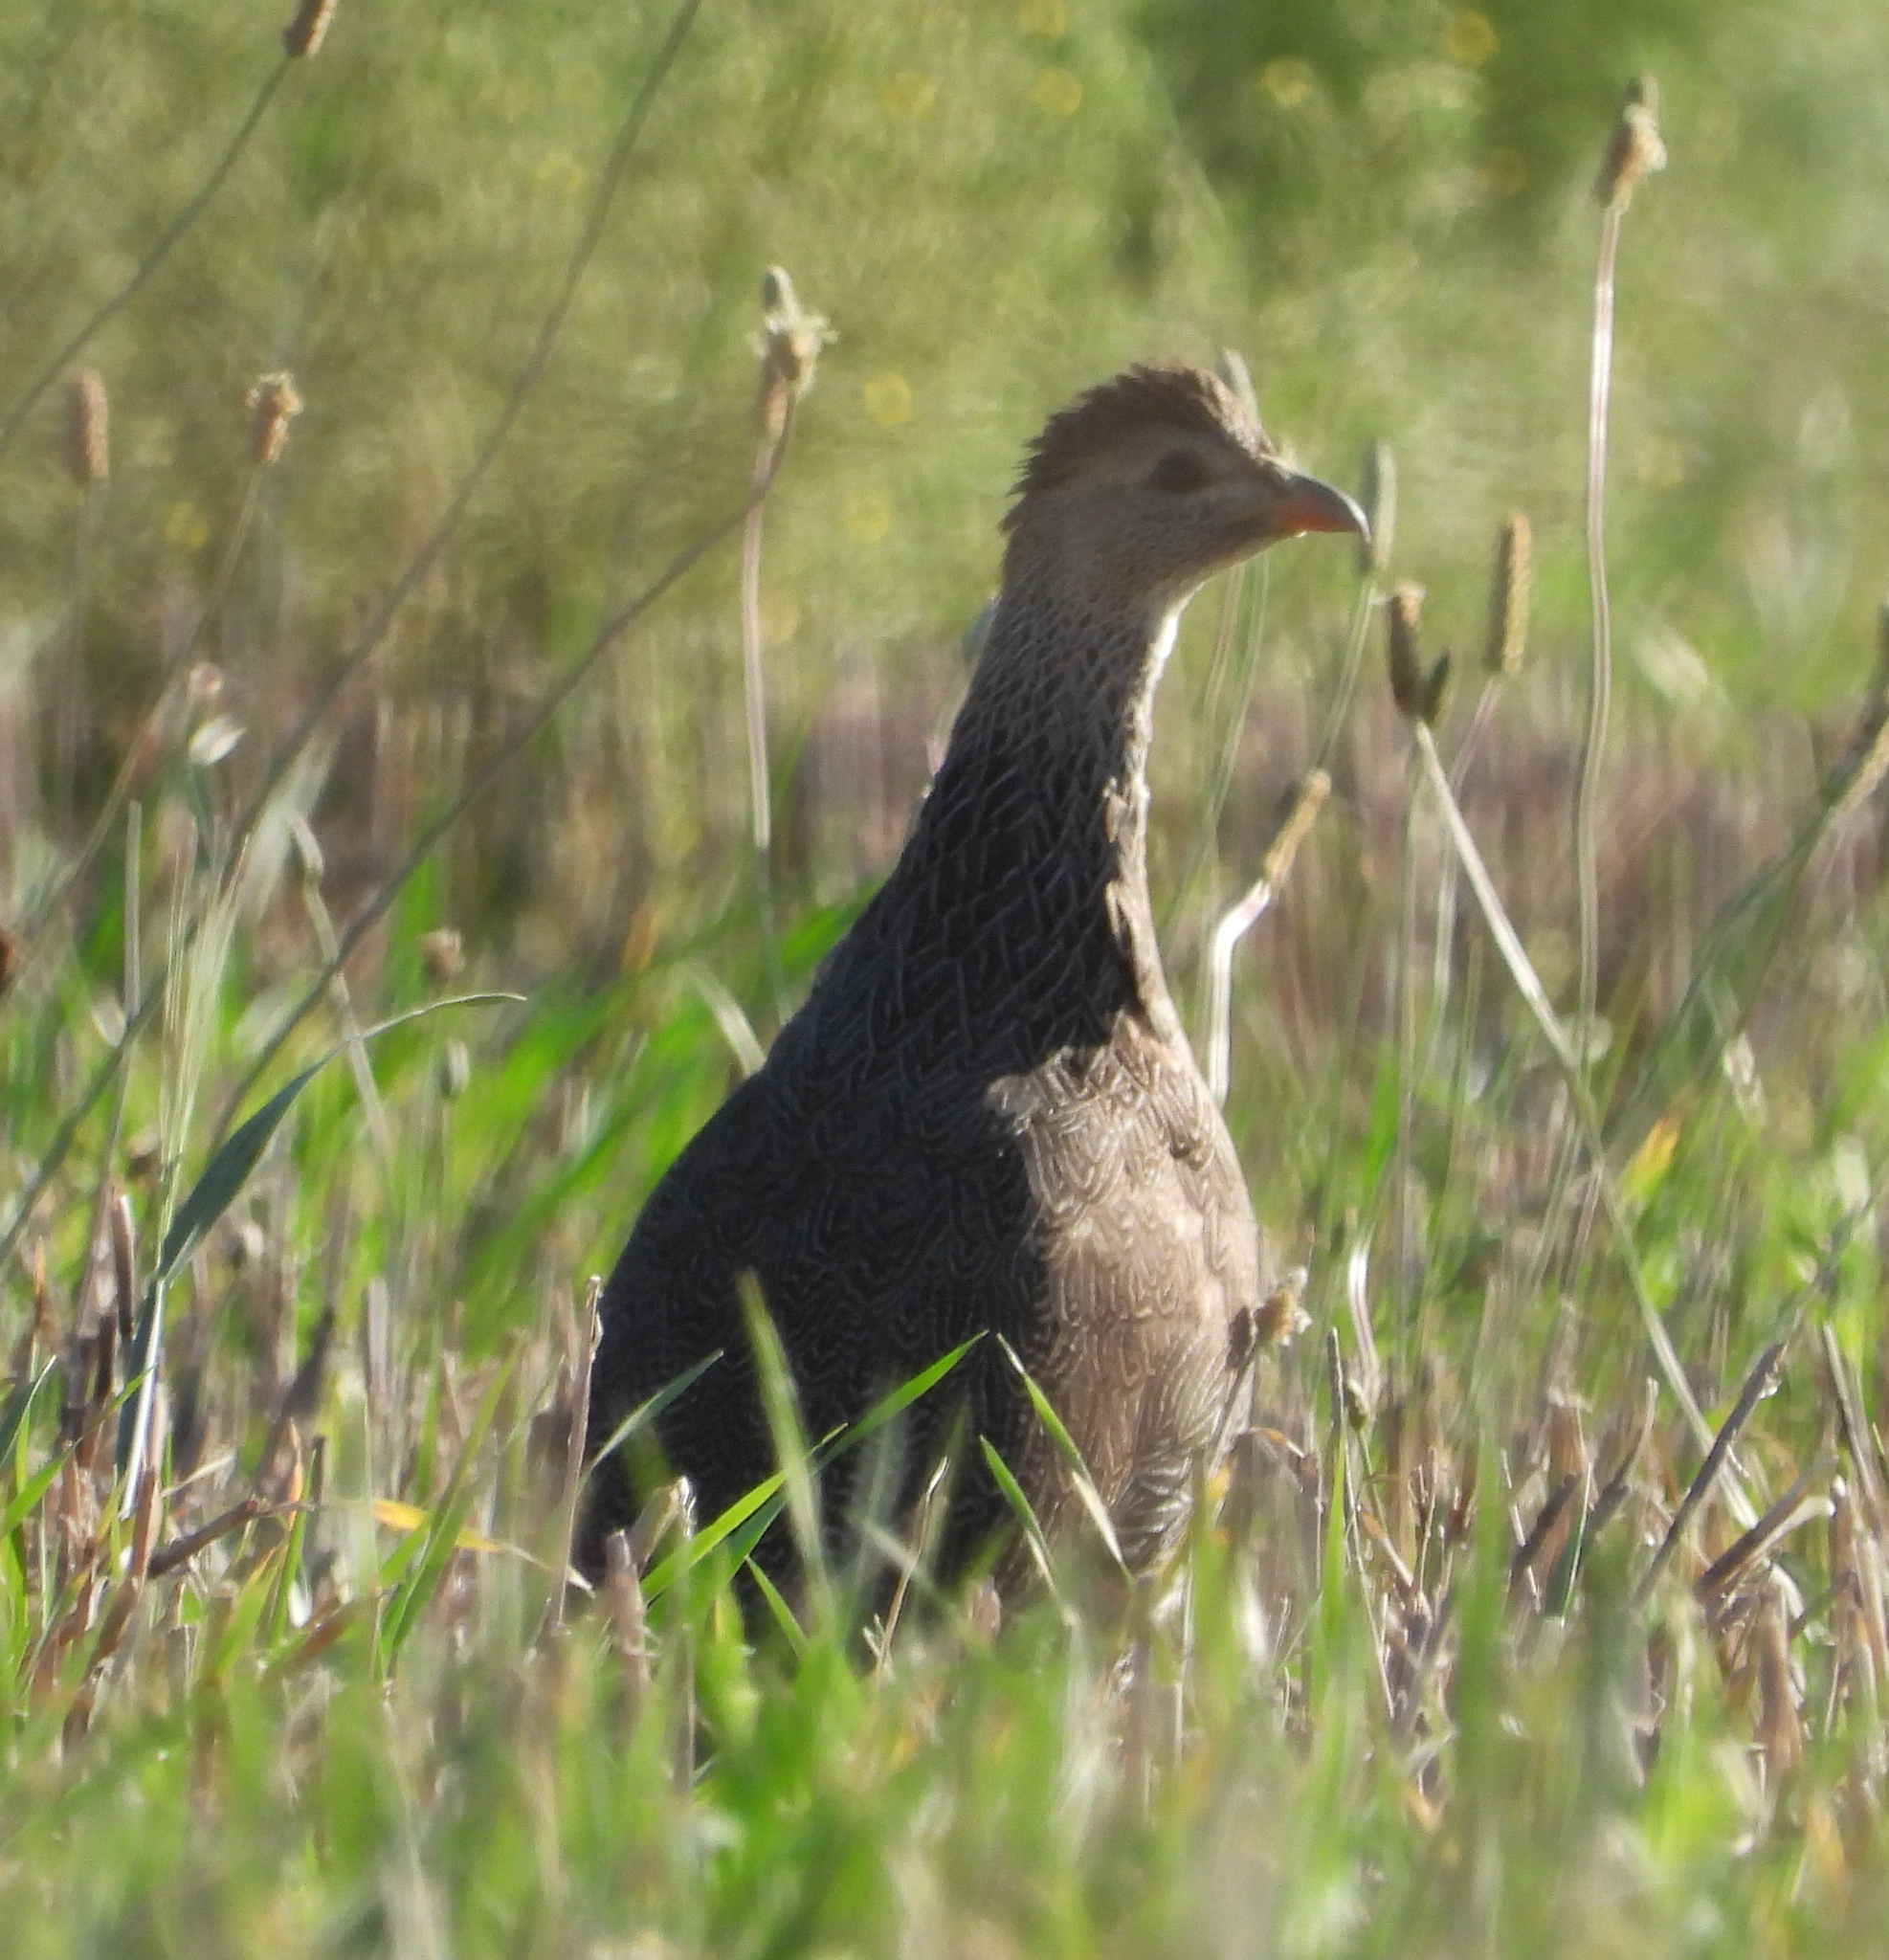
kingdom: Animalia
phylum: Chordata
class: Aves
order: Galliformes
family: Phasianidae
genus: Pternistis
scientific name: Pternistis capensis
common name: Cape spurfowl
